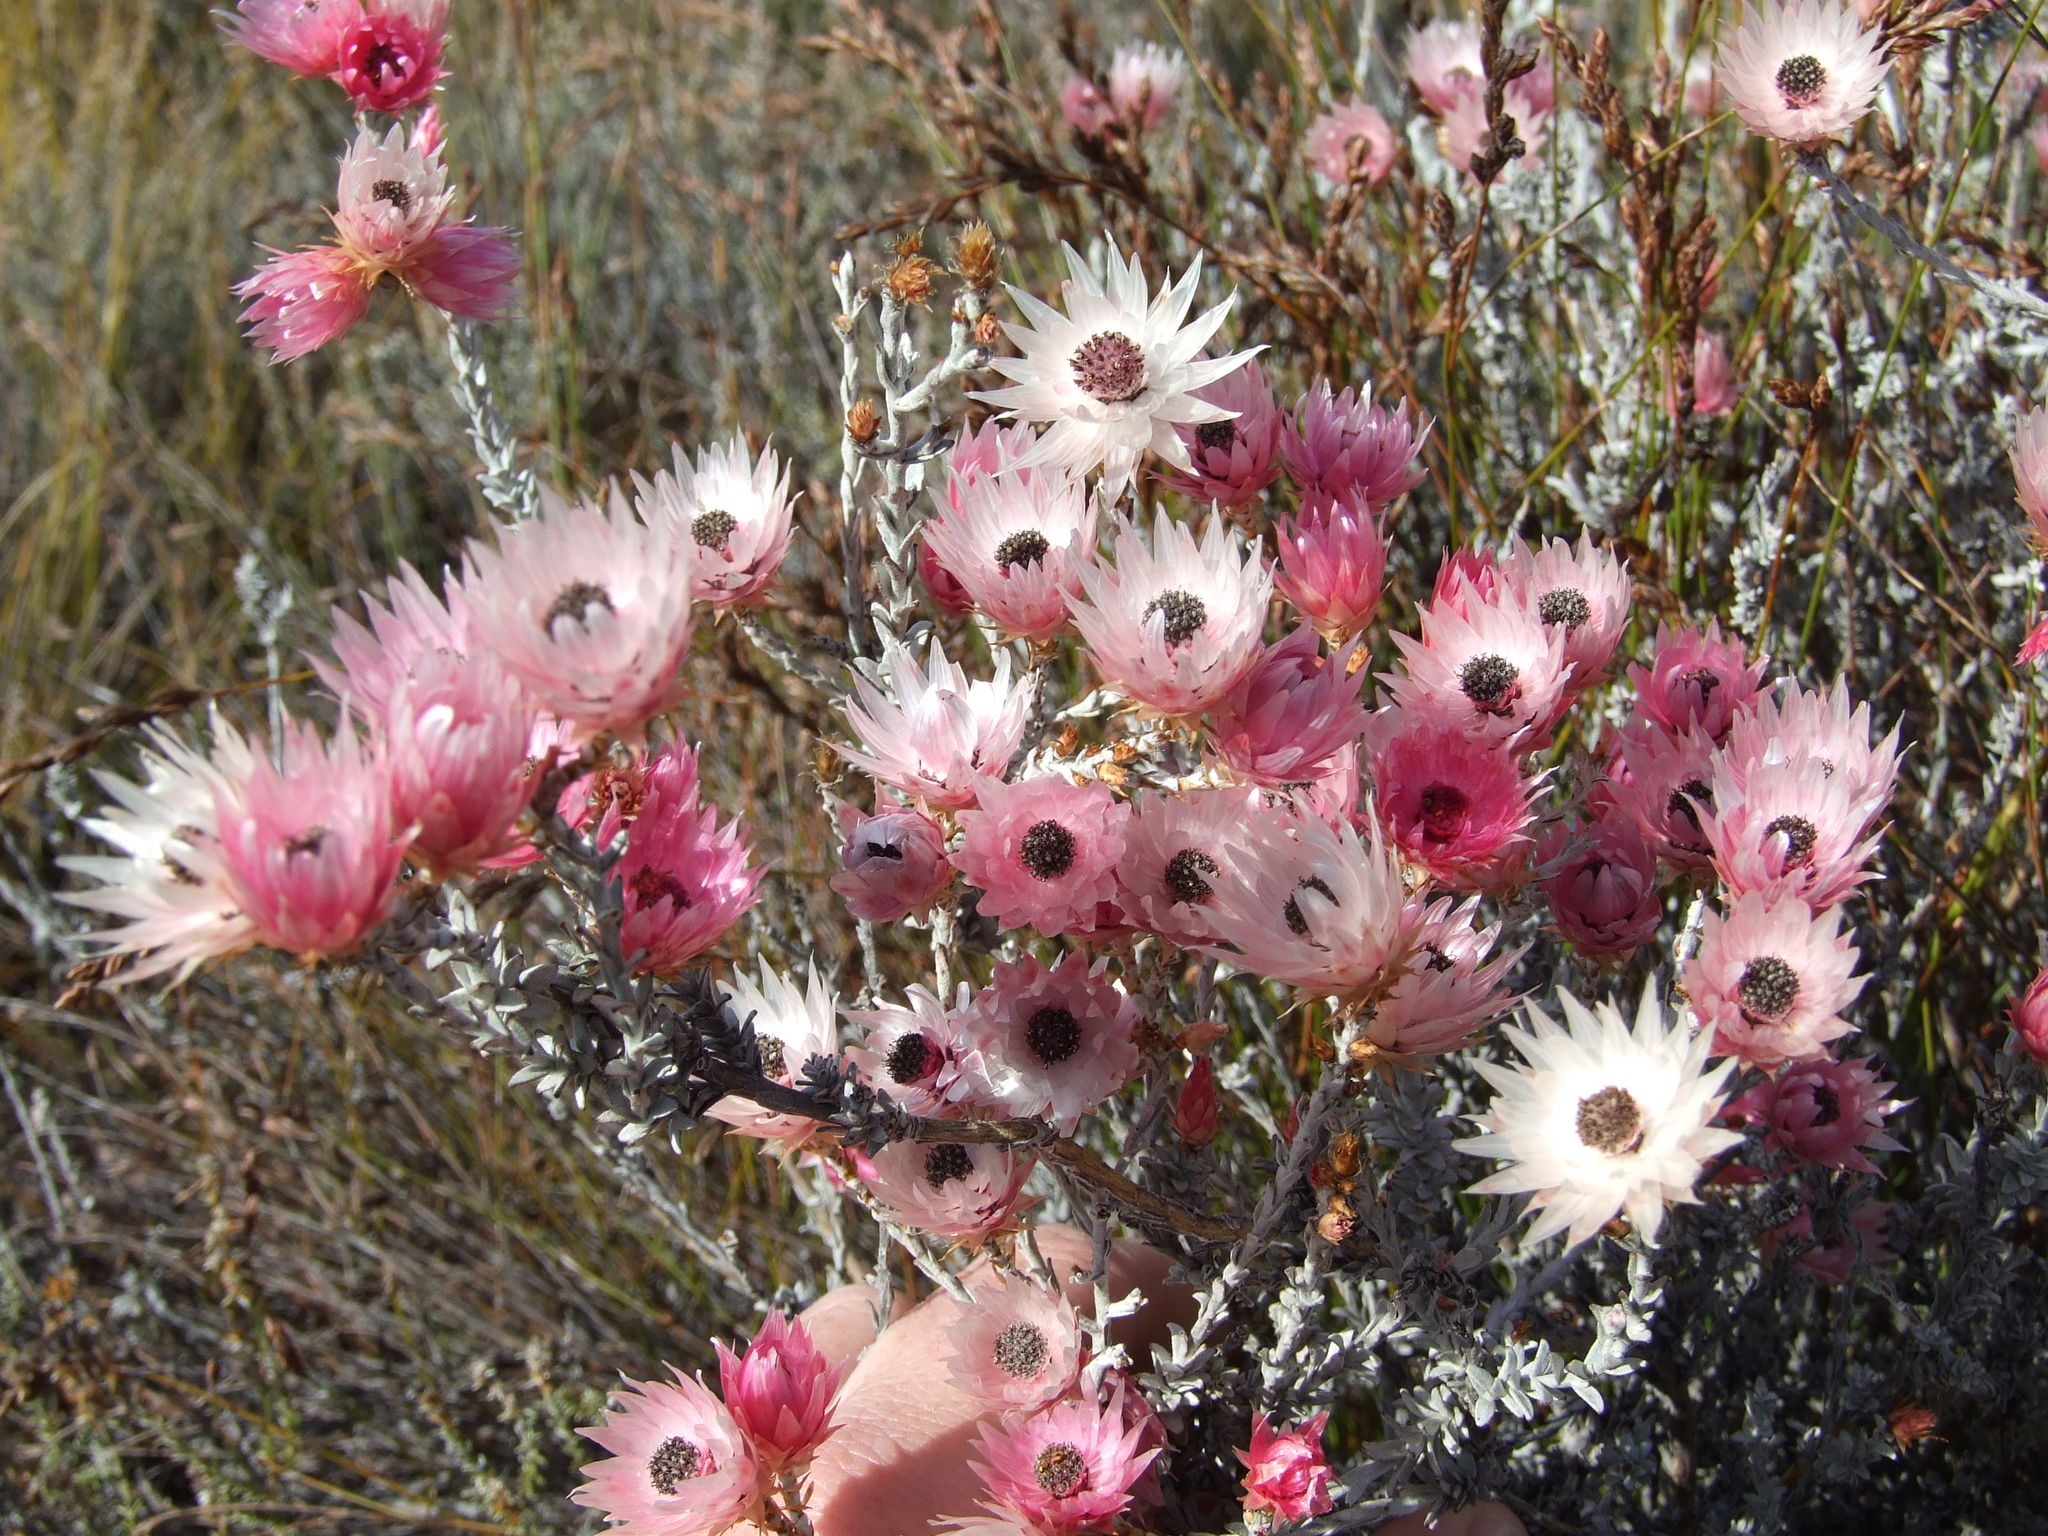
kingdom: Plantae
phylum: Tracheophyta
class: Magnoliopsida
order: Asterales
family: Asteraceae
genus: Syncarpha
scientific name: Syncarpha canescens
